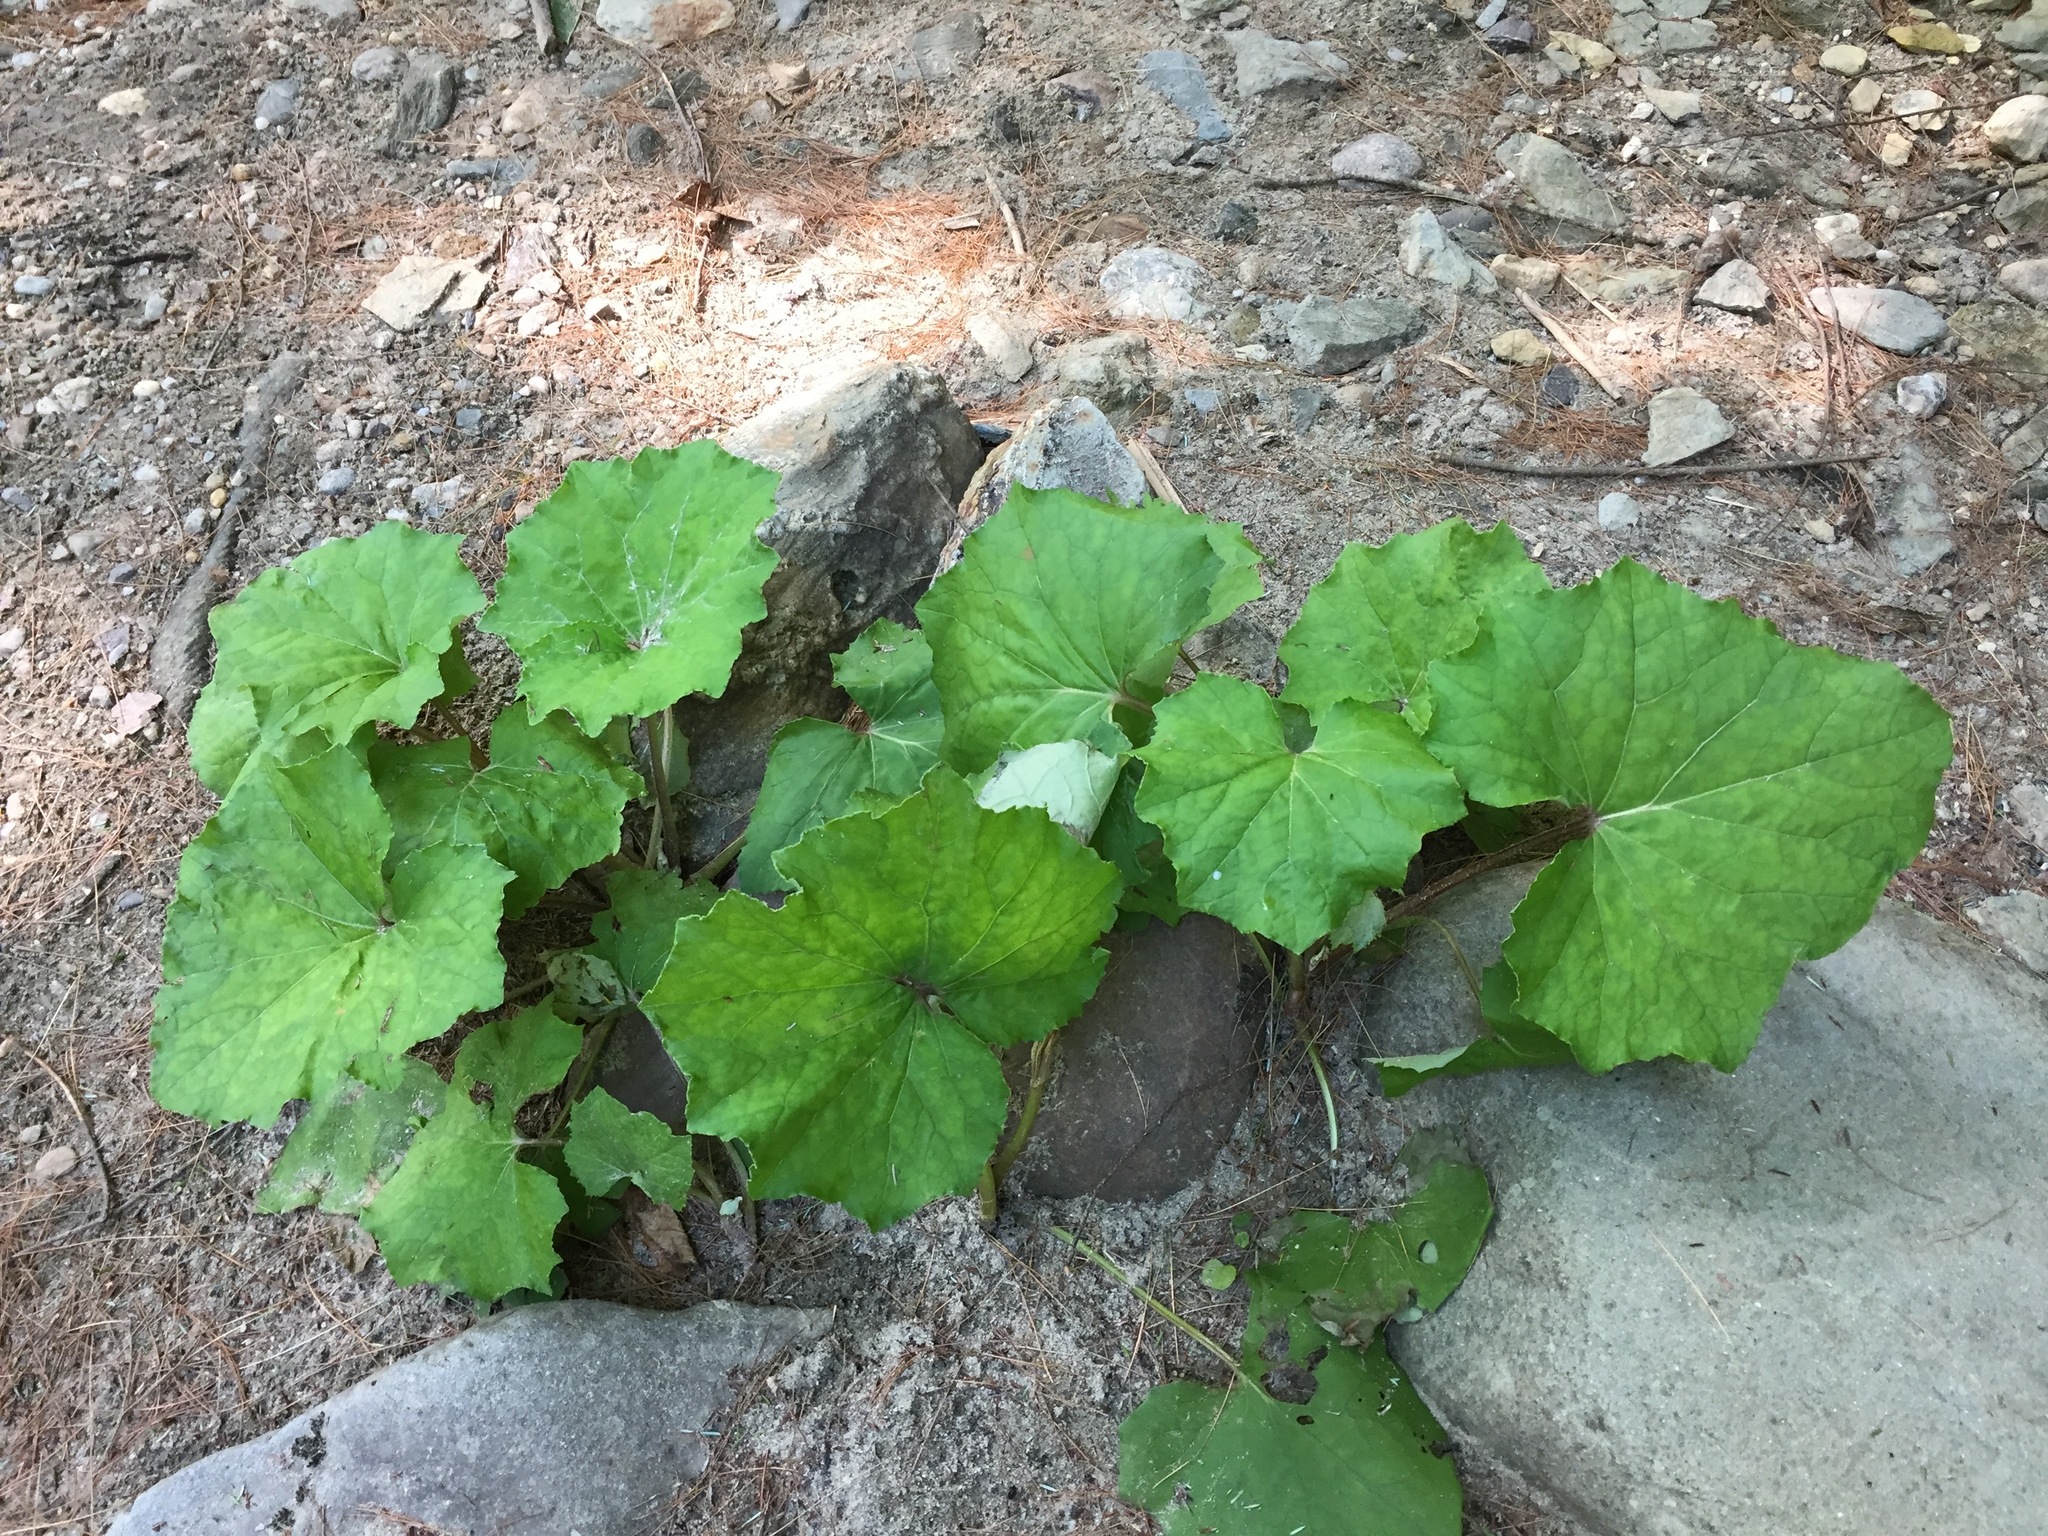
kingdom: Plantae
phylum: Tracheophyta
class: Magnoliopsida
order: Asterales
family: Asteraceae
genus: Tussilago
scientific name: Tussilago farfara
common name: Coltsfoot
